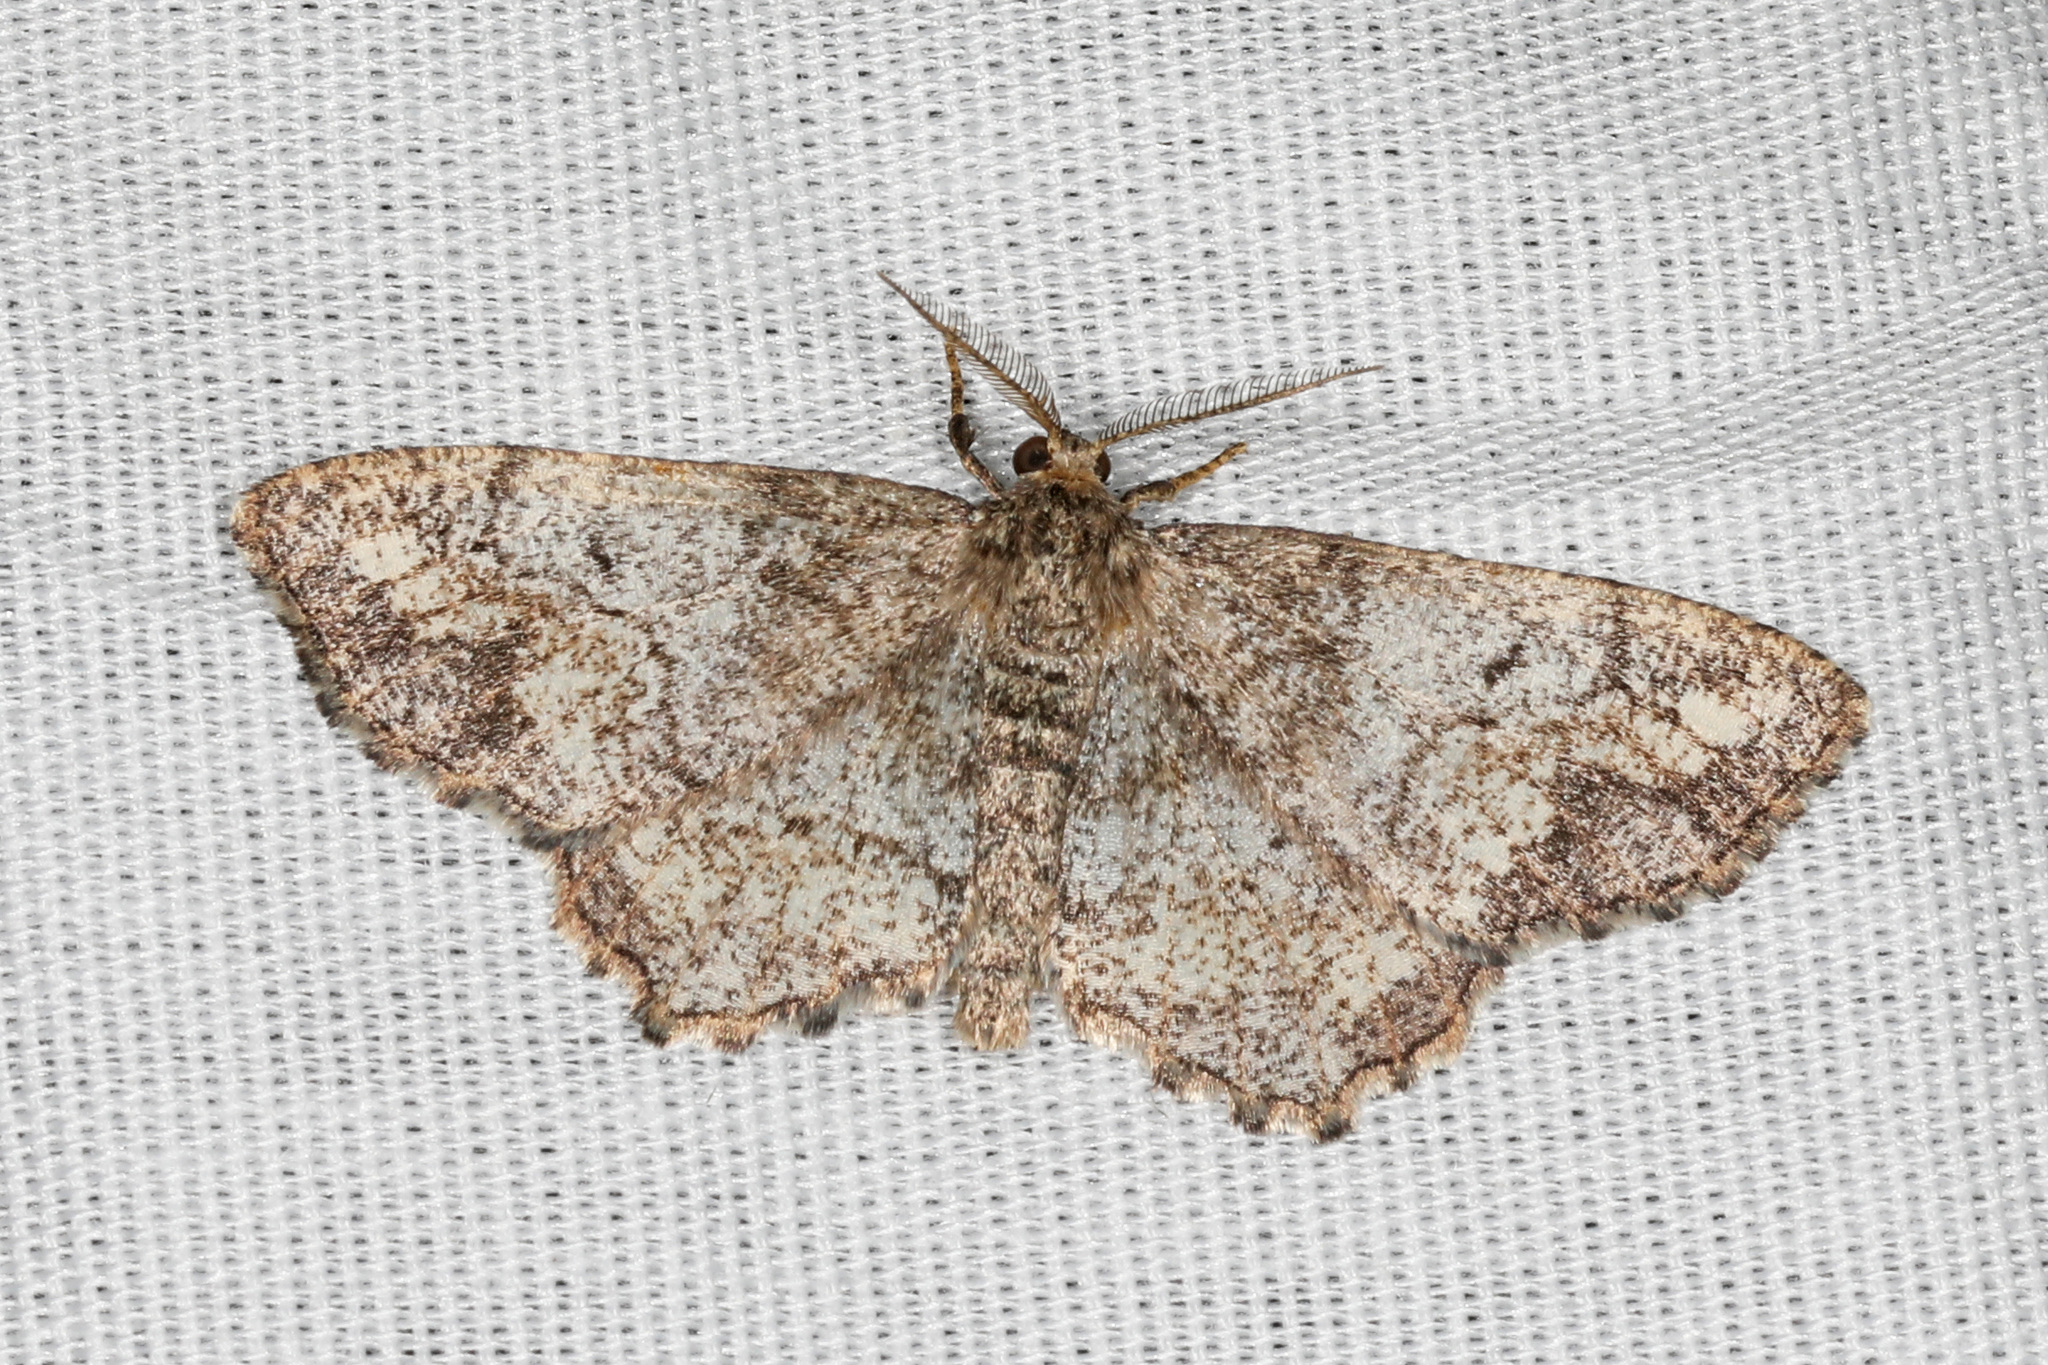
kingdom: Animalia
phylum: Arthropoda
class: Insecta
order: Lepidoptera
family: Geometridae
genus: Hypagyrtis
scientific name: Hypagyrtis unipunctata
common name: One-spotted variant
